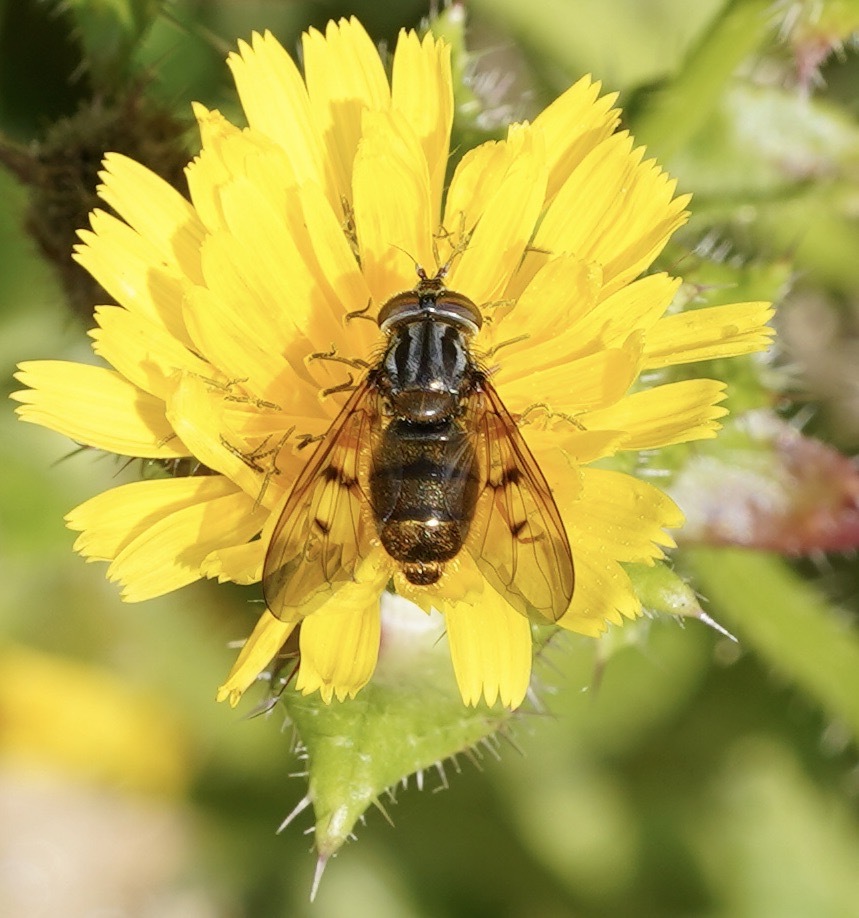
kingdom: Animalia
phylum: Arthropoda
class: Insecta
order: Diptera
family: Syrphidae
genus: Ferdinandea
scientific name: Ferdinandea cuprea
